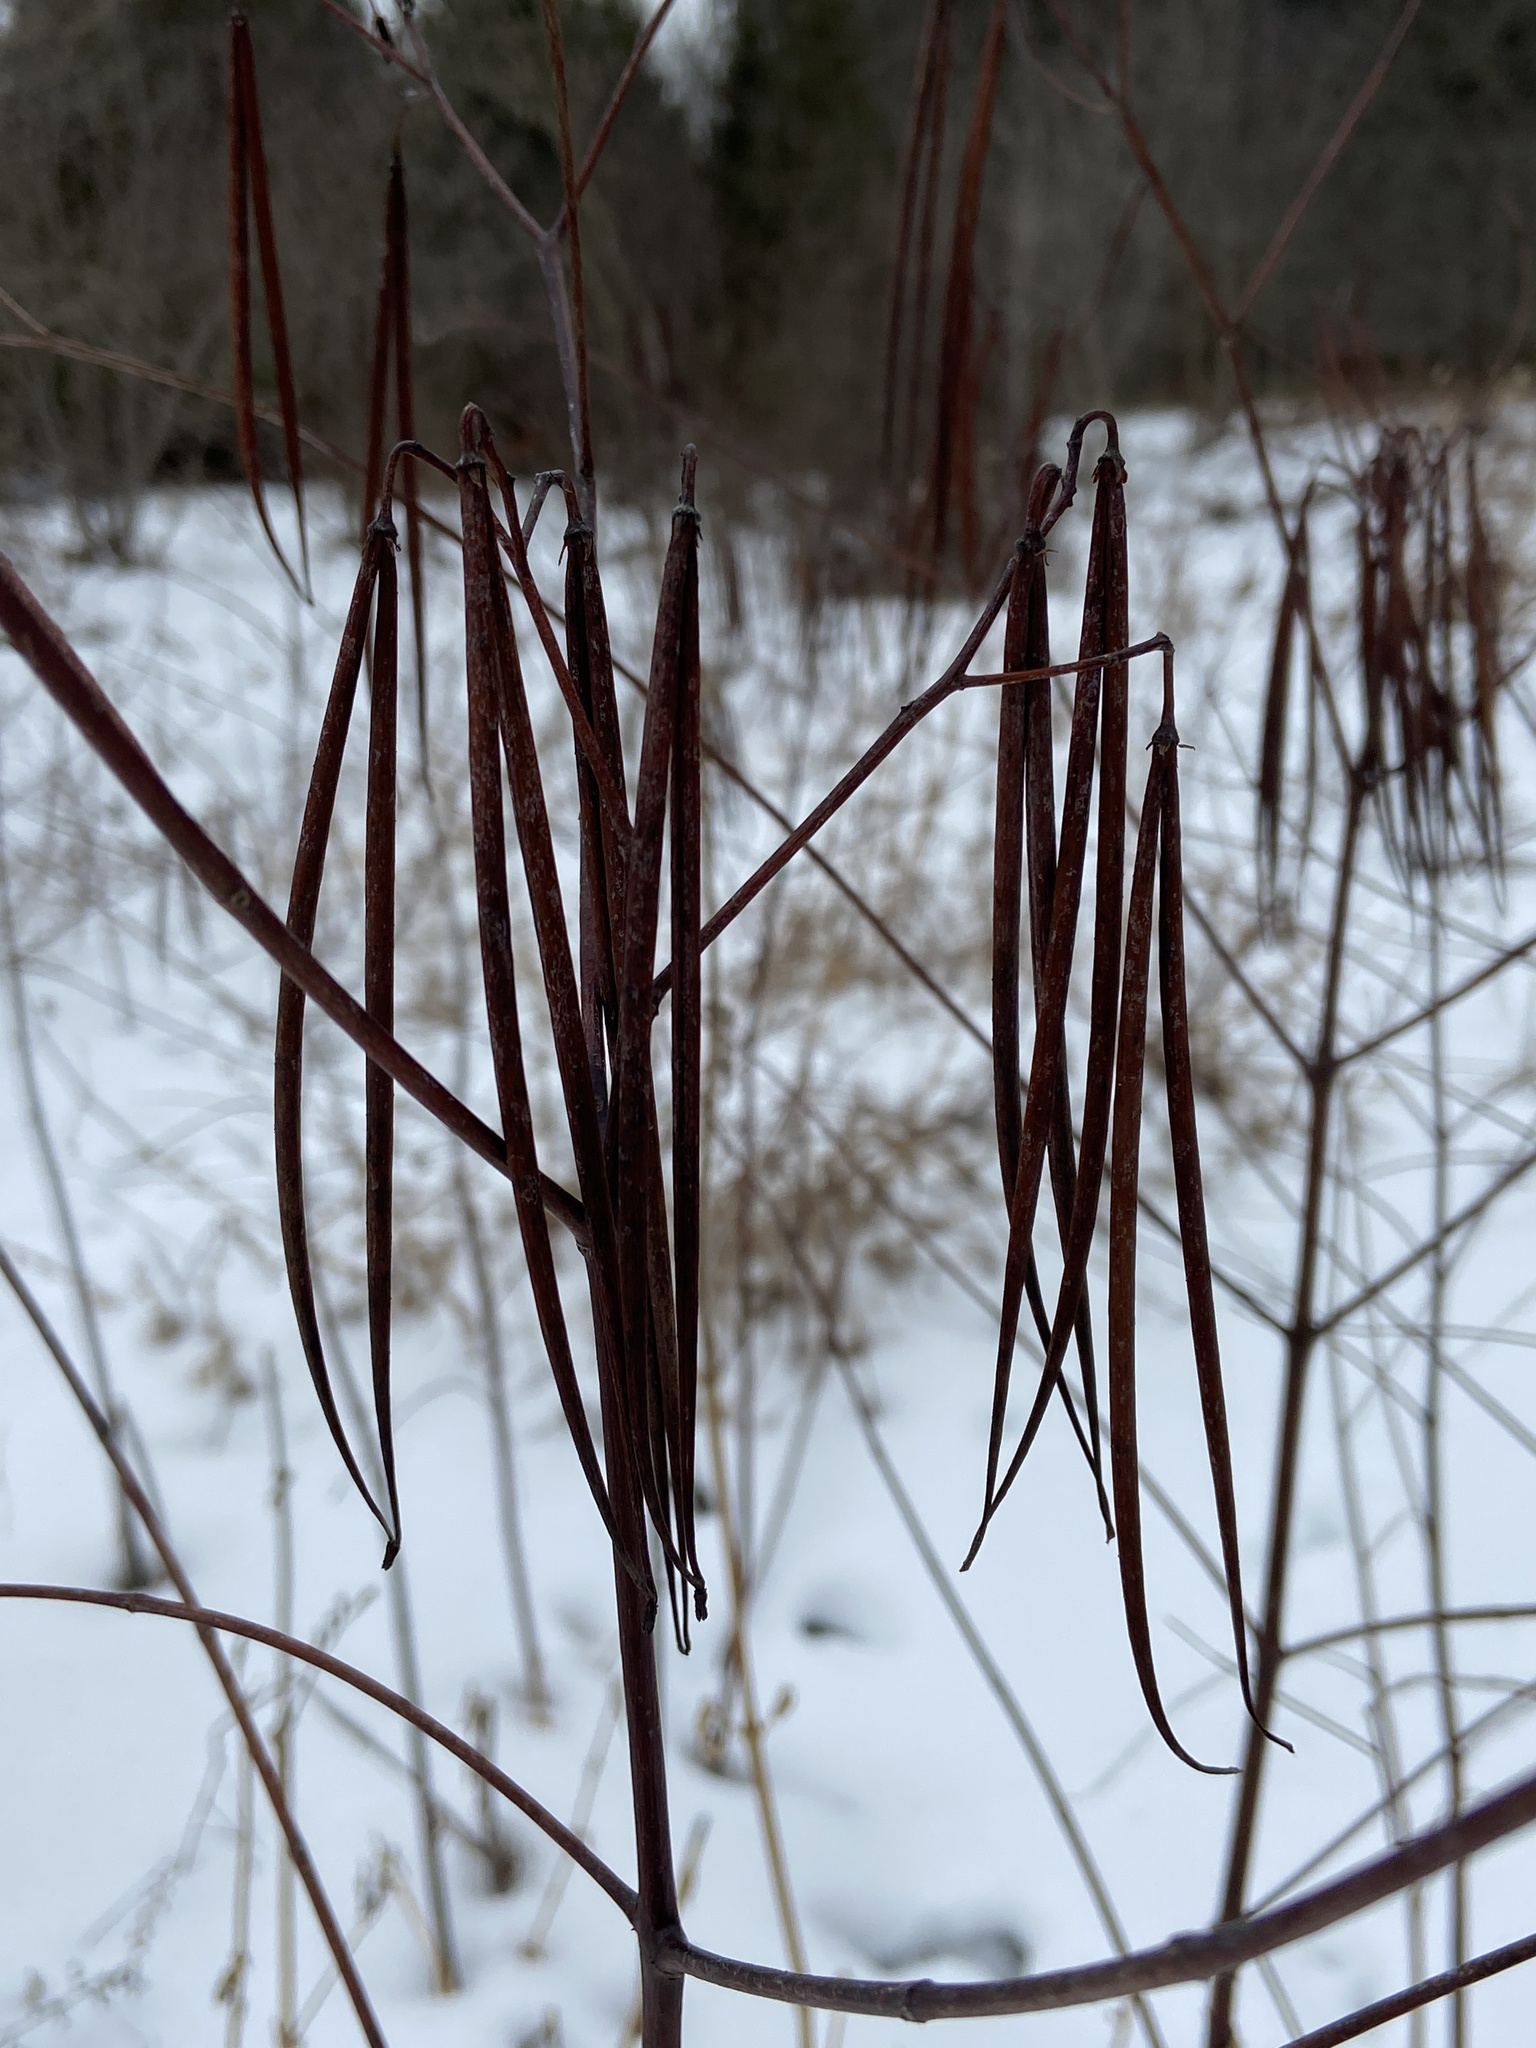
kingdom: Plantae
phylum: Tracheophyta
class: Magnoliopsida
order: Gentianales
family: Apocynaceae
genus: Apocynum
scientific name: Apocynum cannabinum
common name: Hemp dogbane
